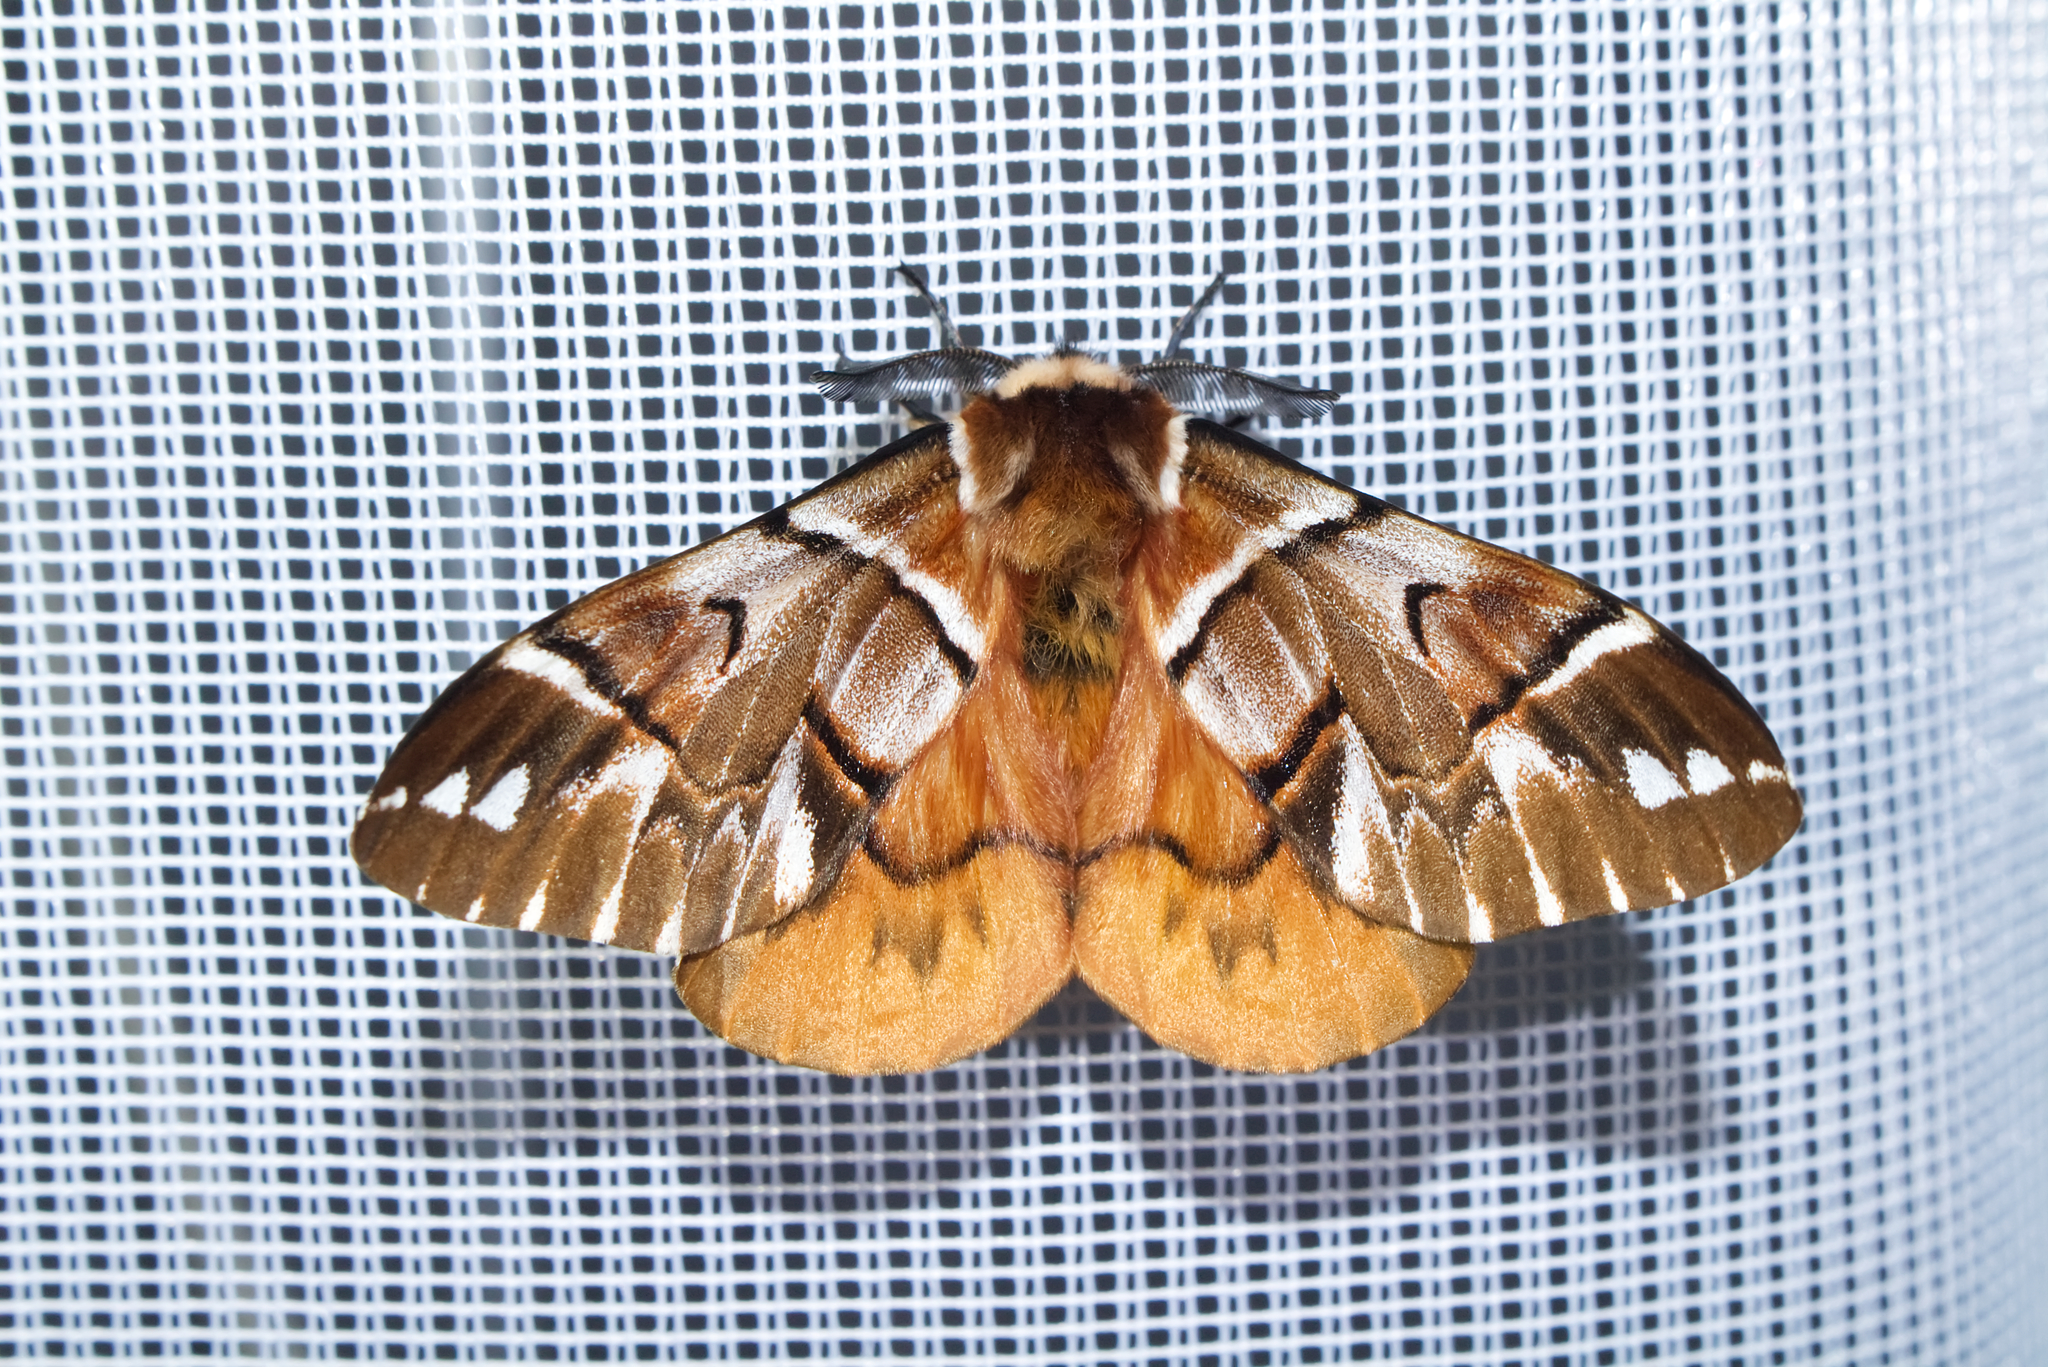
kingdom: Animalia
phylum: Arthropoda
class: Insecta
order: Lepidoptera
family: Endromidae
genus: Endromis
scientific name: Endromis versicolora
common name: Kentish glory
